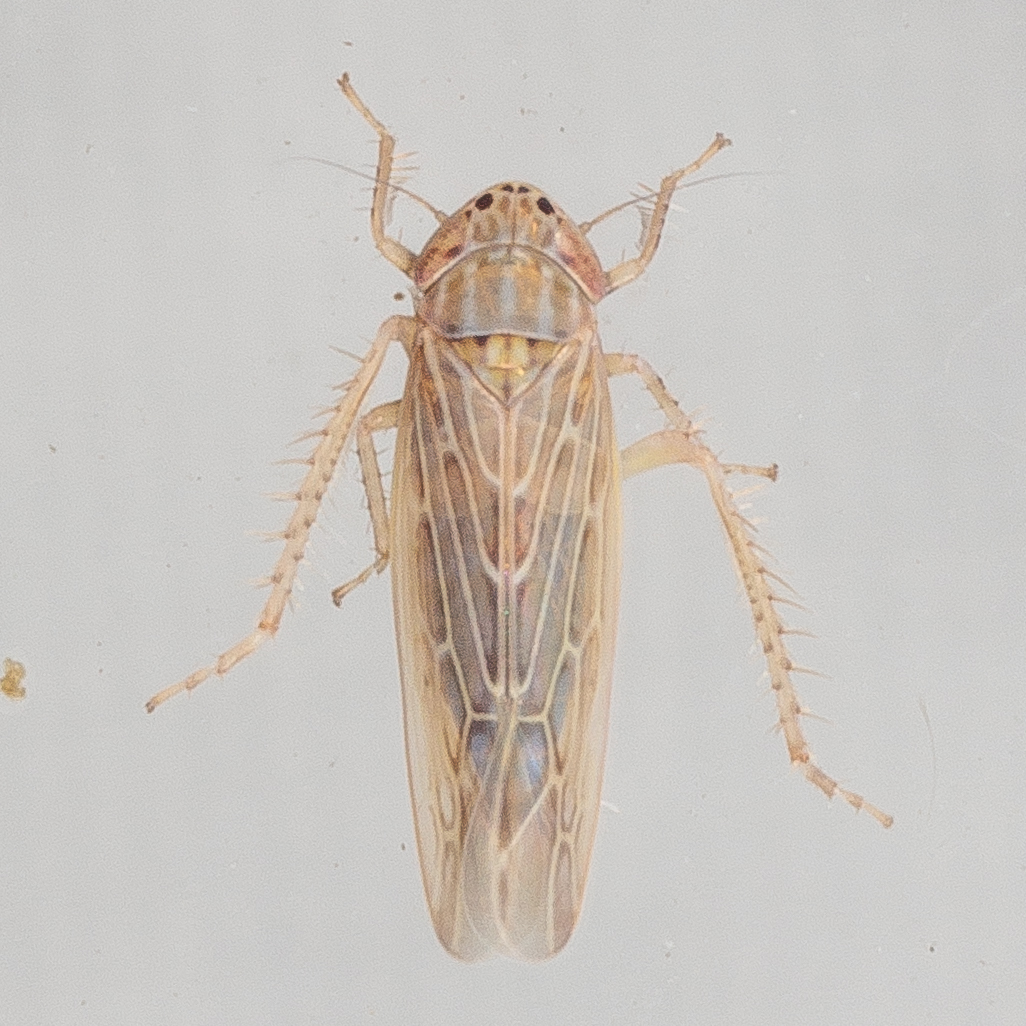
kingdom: Animalia
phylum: Arthropoda
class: Insecta
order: Hemiptera
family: Cicadellidae
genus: Graminella
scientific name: Graminella sonora
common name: Lesser lawn leafhopper
